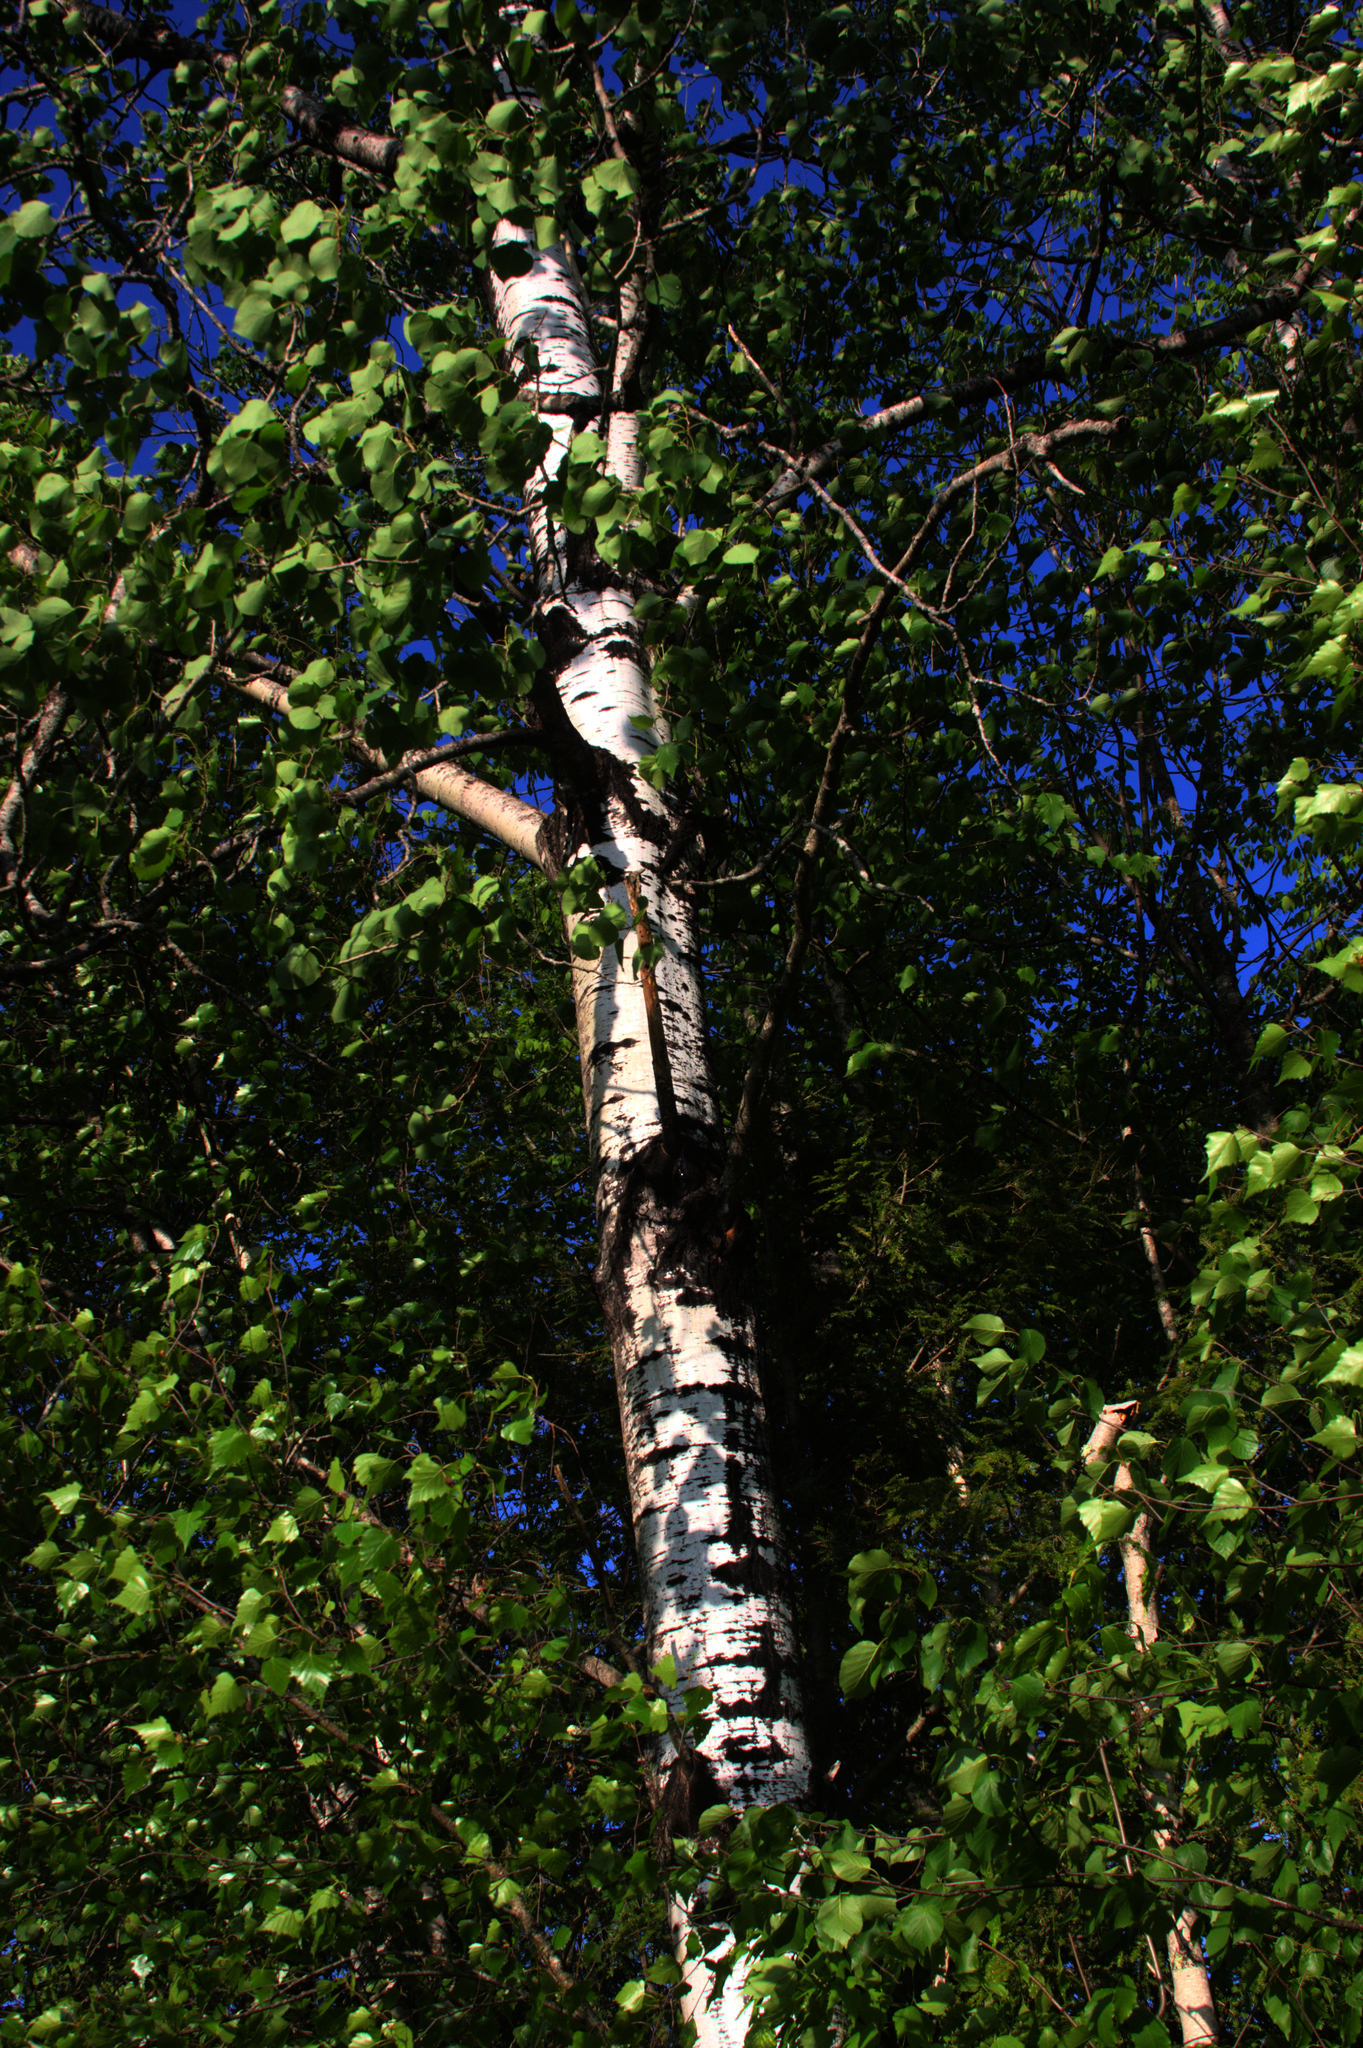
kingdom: Plantae
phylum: Tracheophyta
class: Magnoliopsida
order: Malpighiales
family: Salicaceae
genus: Populus
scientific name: Populus tremuloides
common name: Quaking aspen
